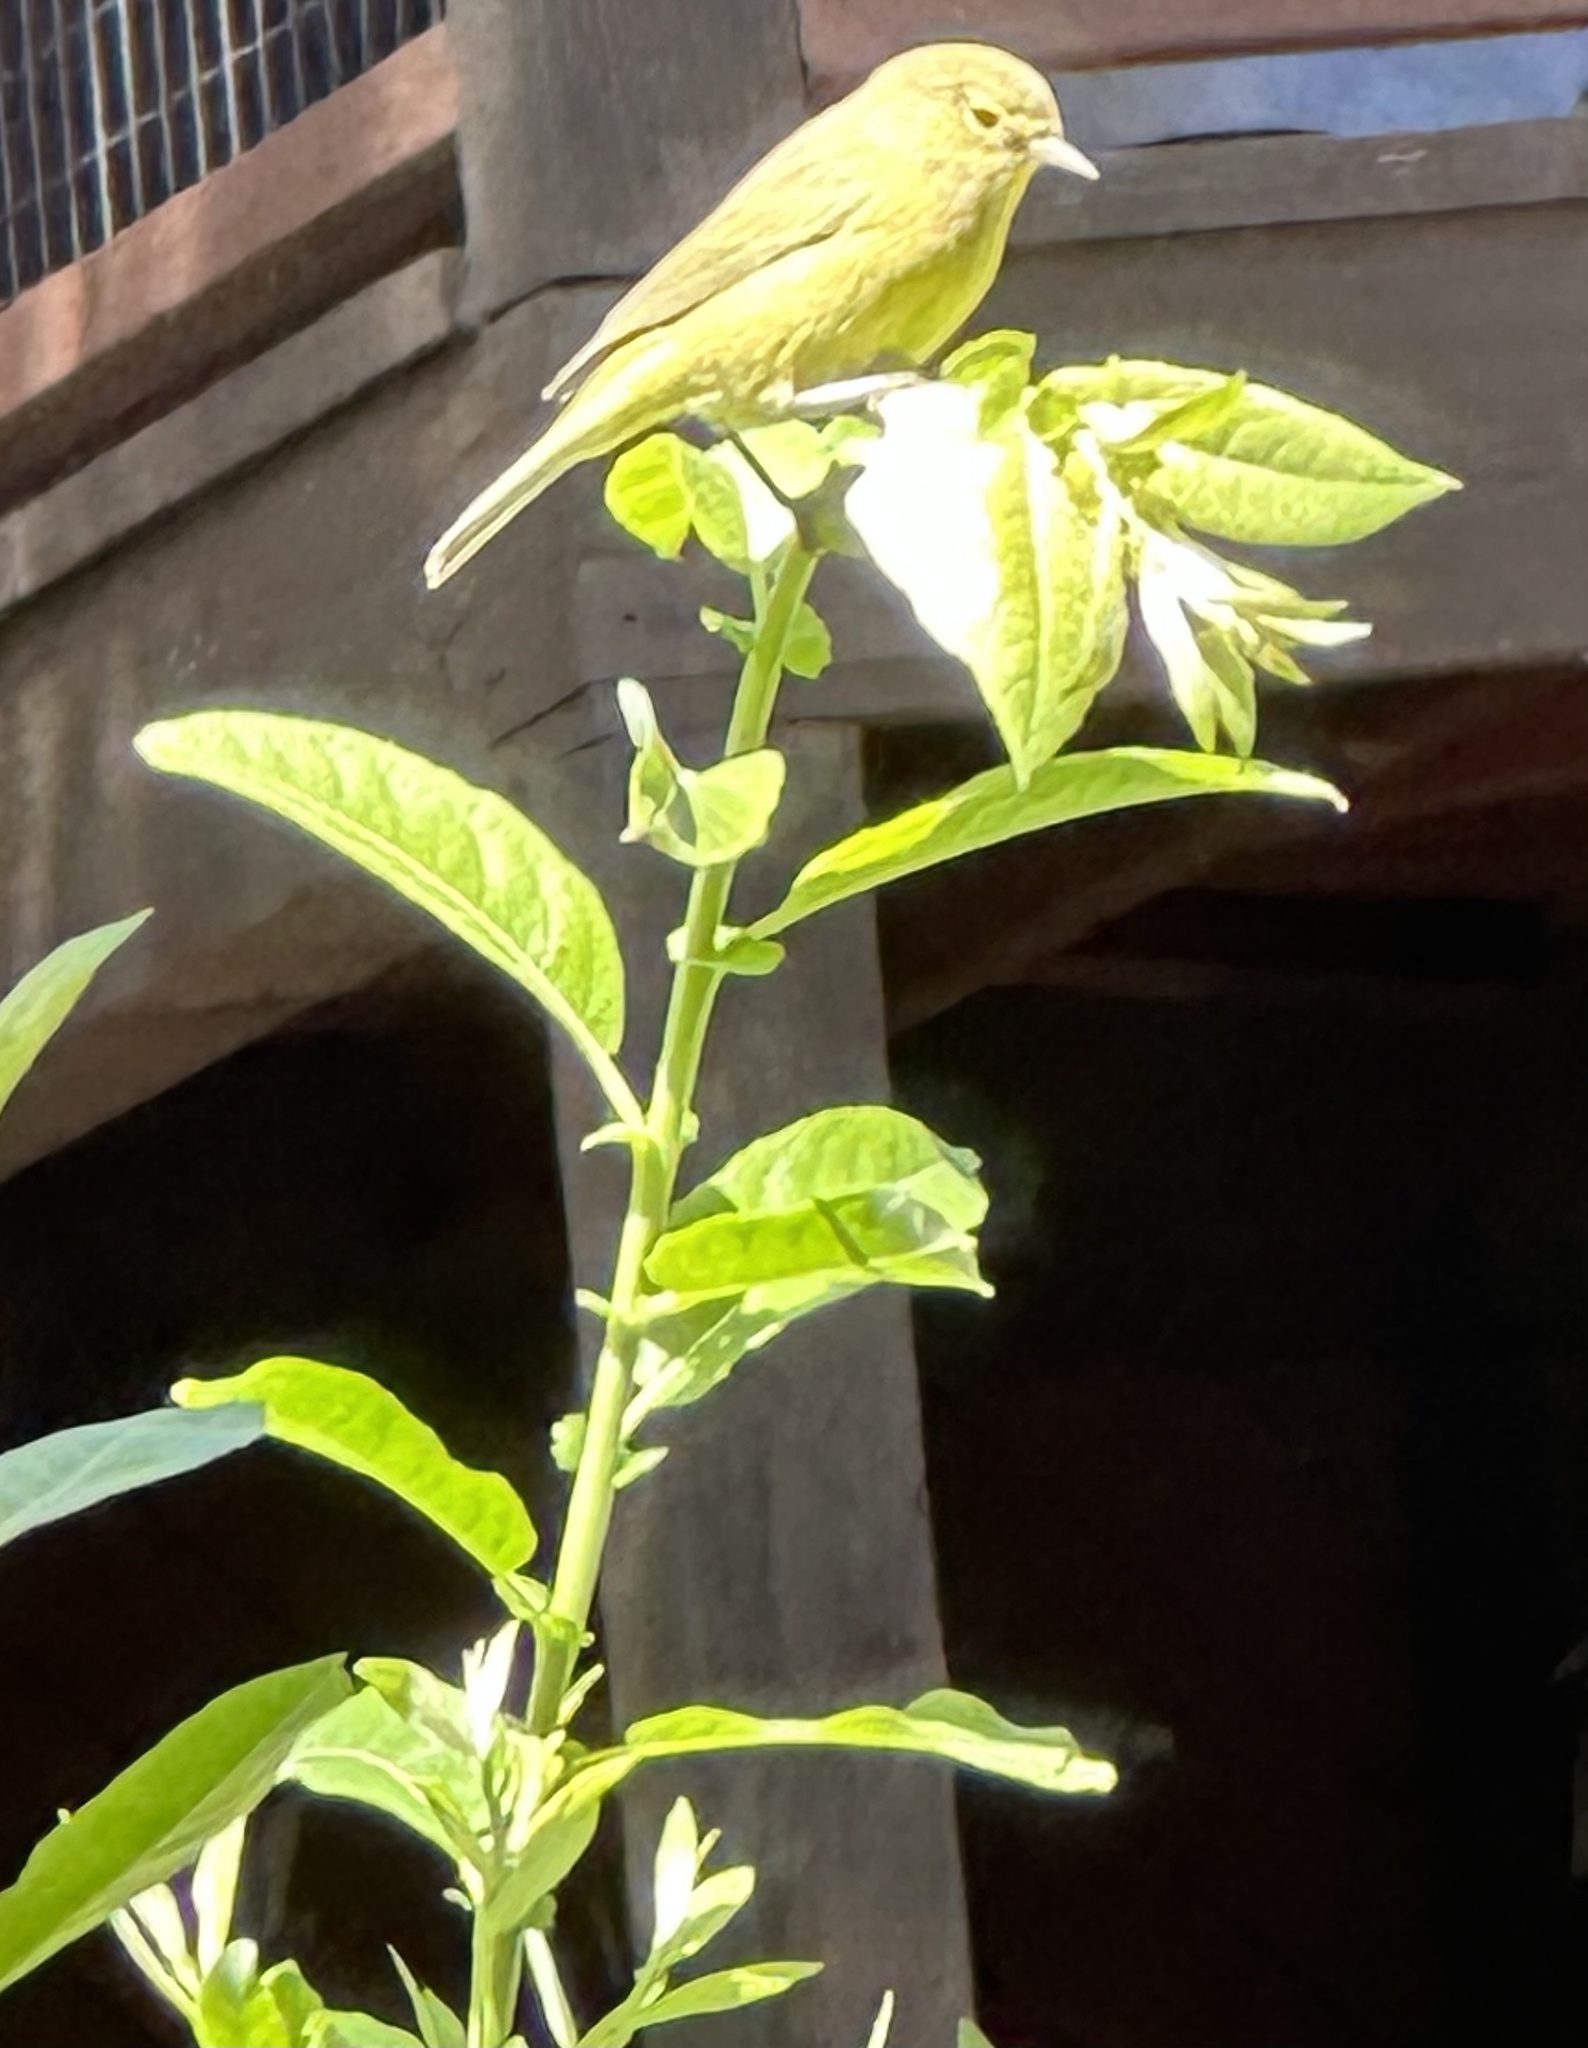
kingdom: Animalia
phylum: Chordata
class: Aves
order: Passeriformes
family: Parulidae
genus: Leiothlypis
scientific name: Leiothlypis celata
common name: Orange-crowned warbler
